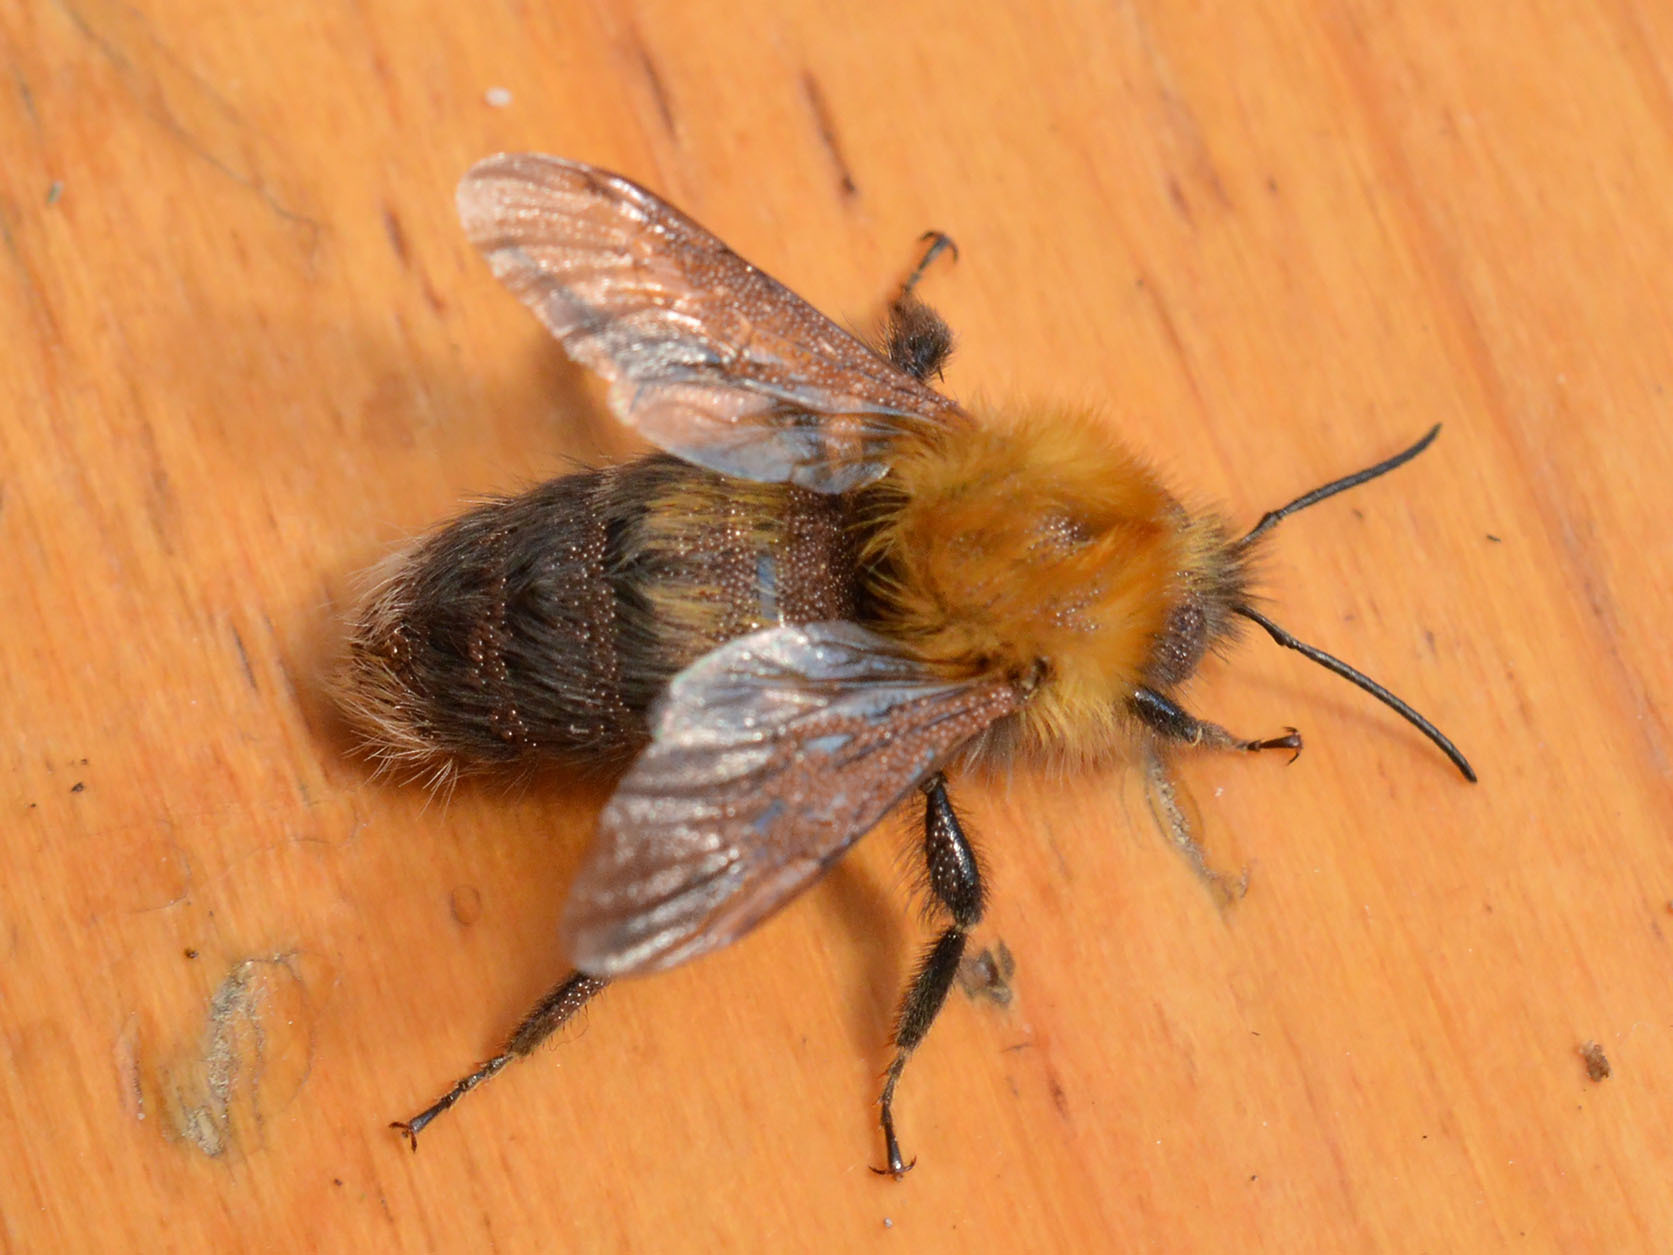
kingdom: Animalia
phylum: Arthropoda
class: Insecta
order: Hymenoptera
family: Apidae
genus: Bombus
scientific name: Bombus hypnorum
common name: New garden bumblebee
